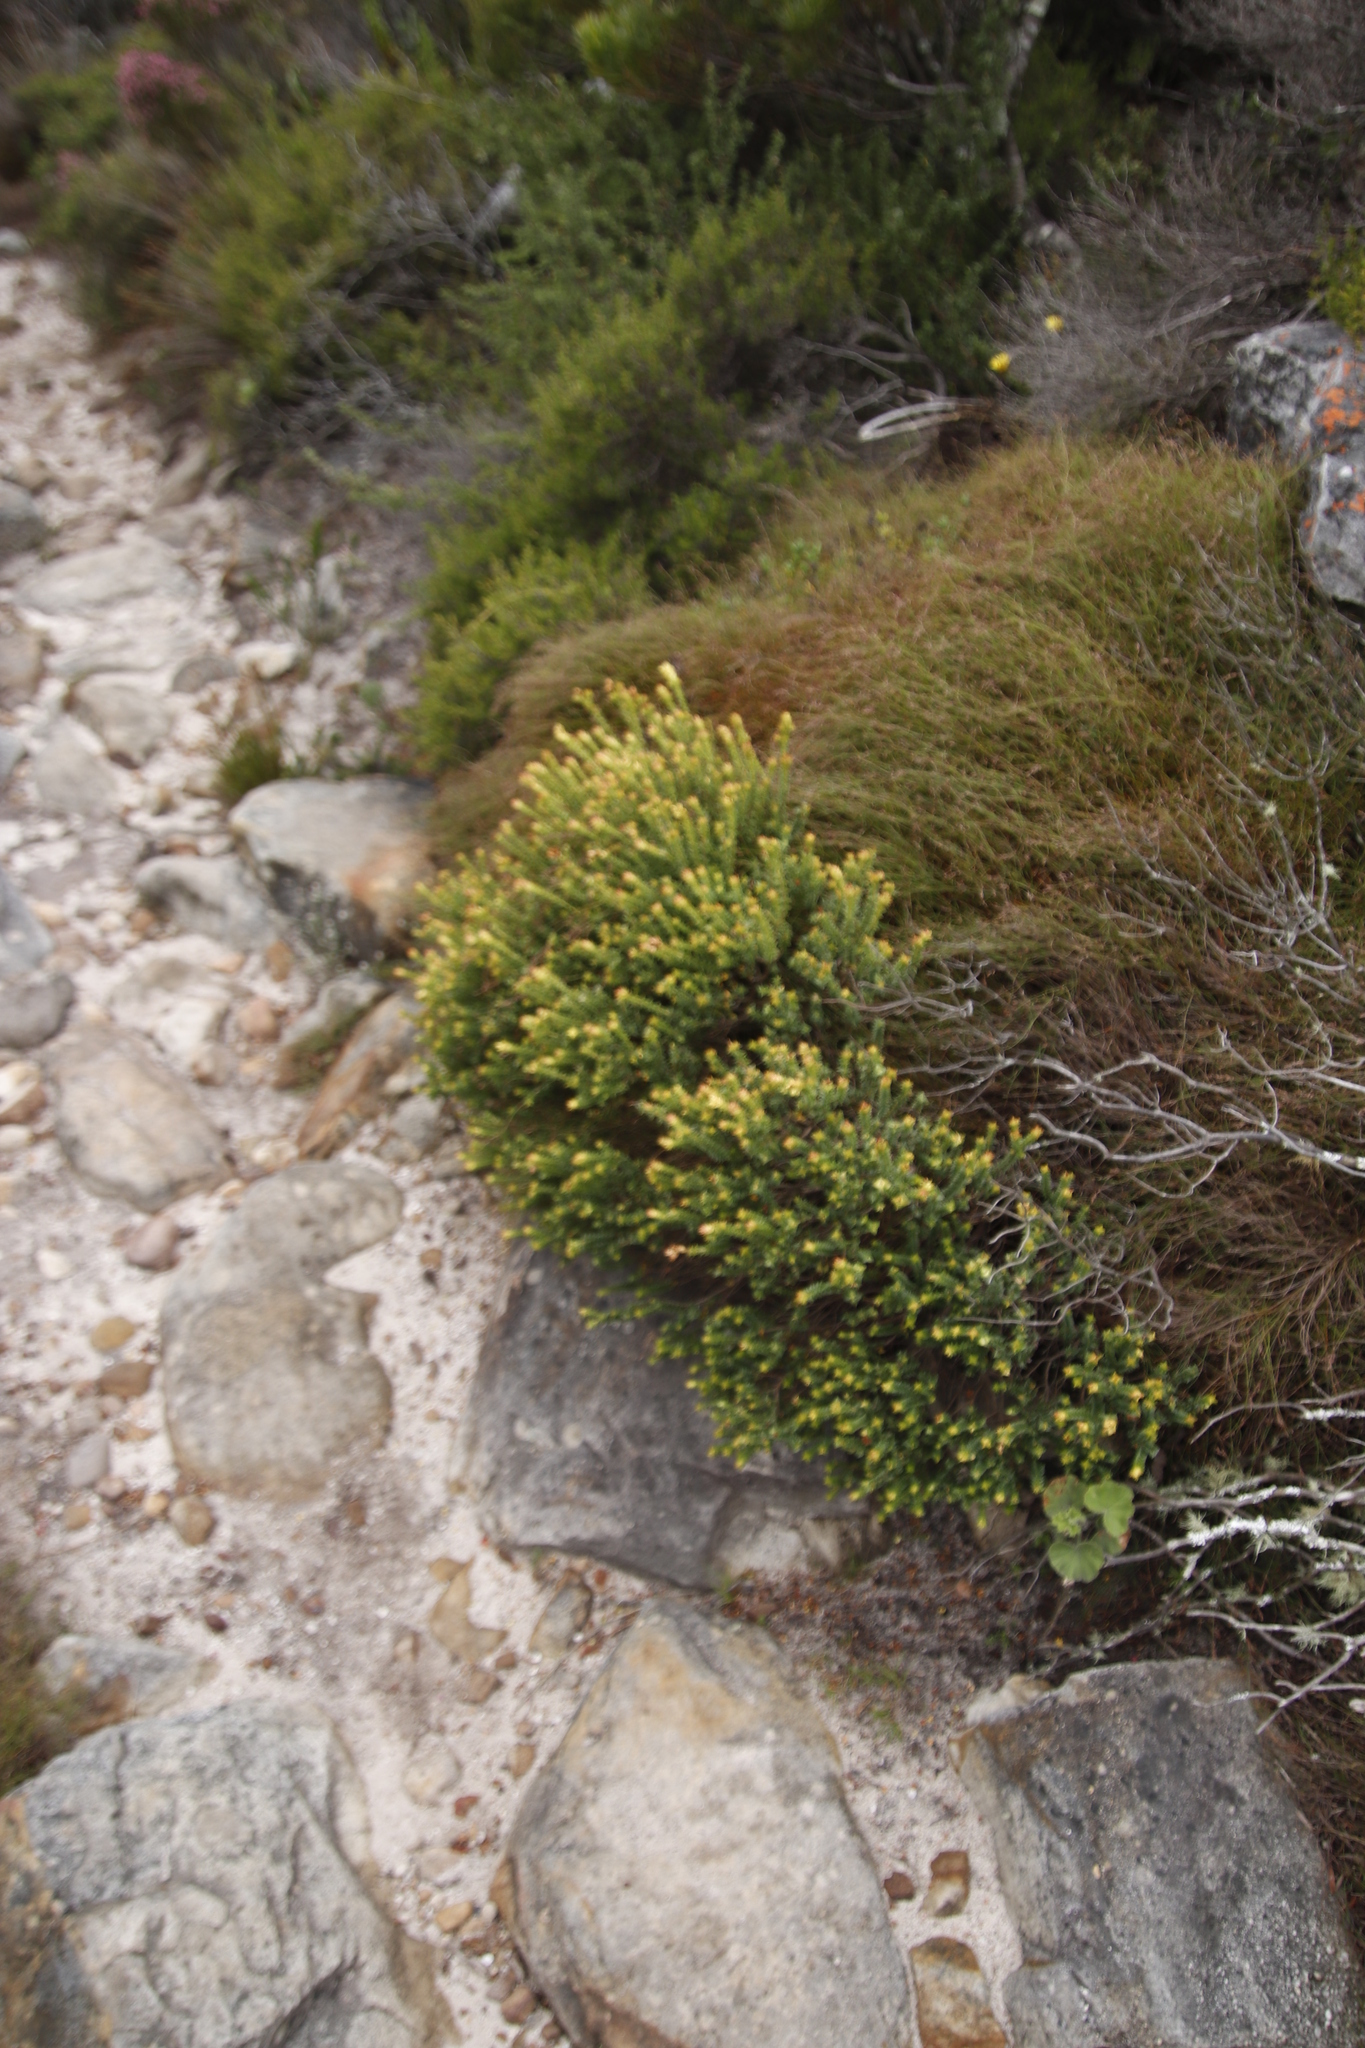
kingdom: Plantae
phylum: Tracheophyta
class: Magnoliopsida
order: Myrtales
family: Penaeaceae
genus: Penaea
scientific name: Penaea mucronata
